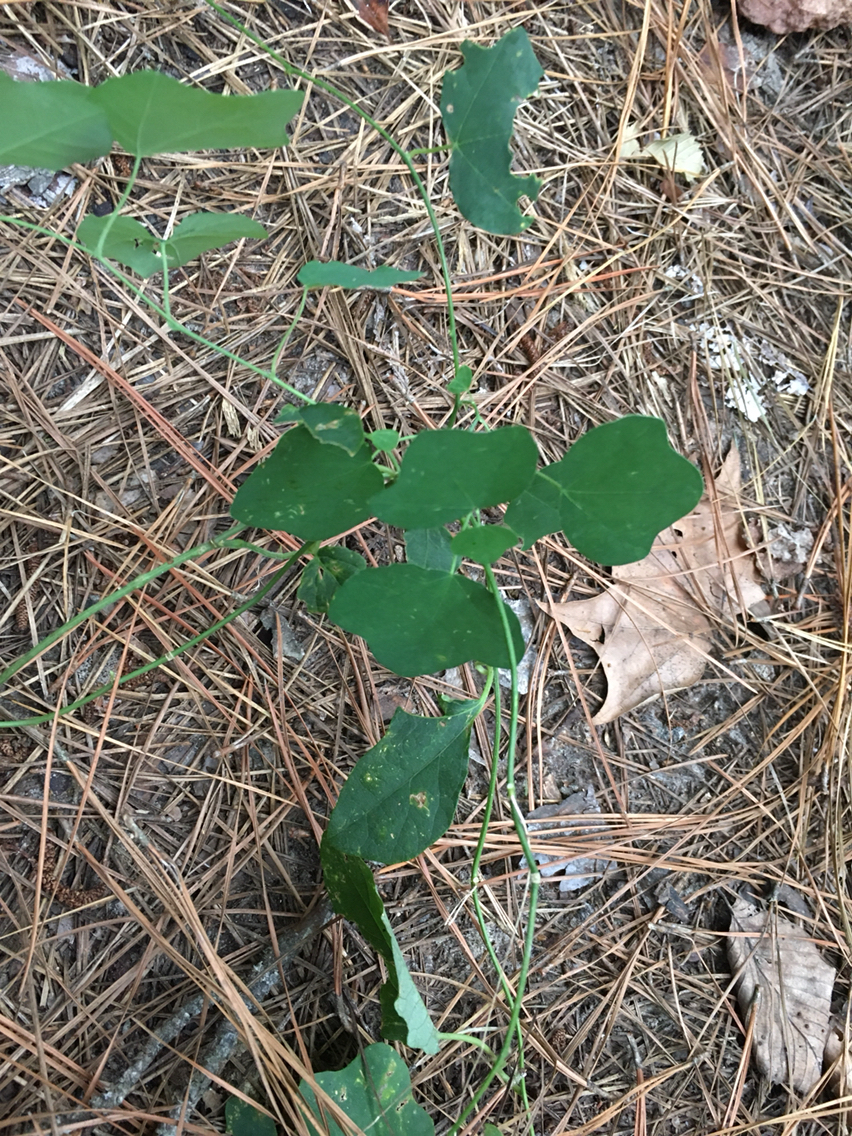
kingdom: Plantae
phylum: Tracheophyta
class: Magnoliopsida
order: Malpighiales
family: Passifloraceae
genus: Passiflora
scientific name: Passiflora lutea
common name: Yellow passionflower
